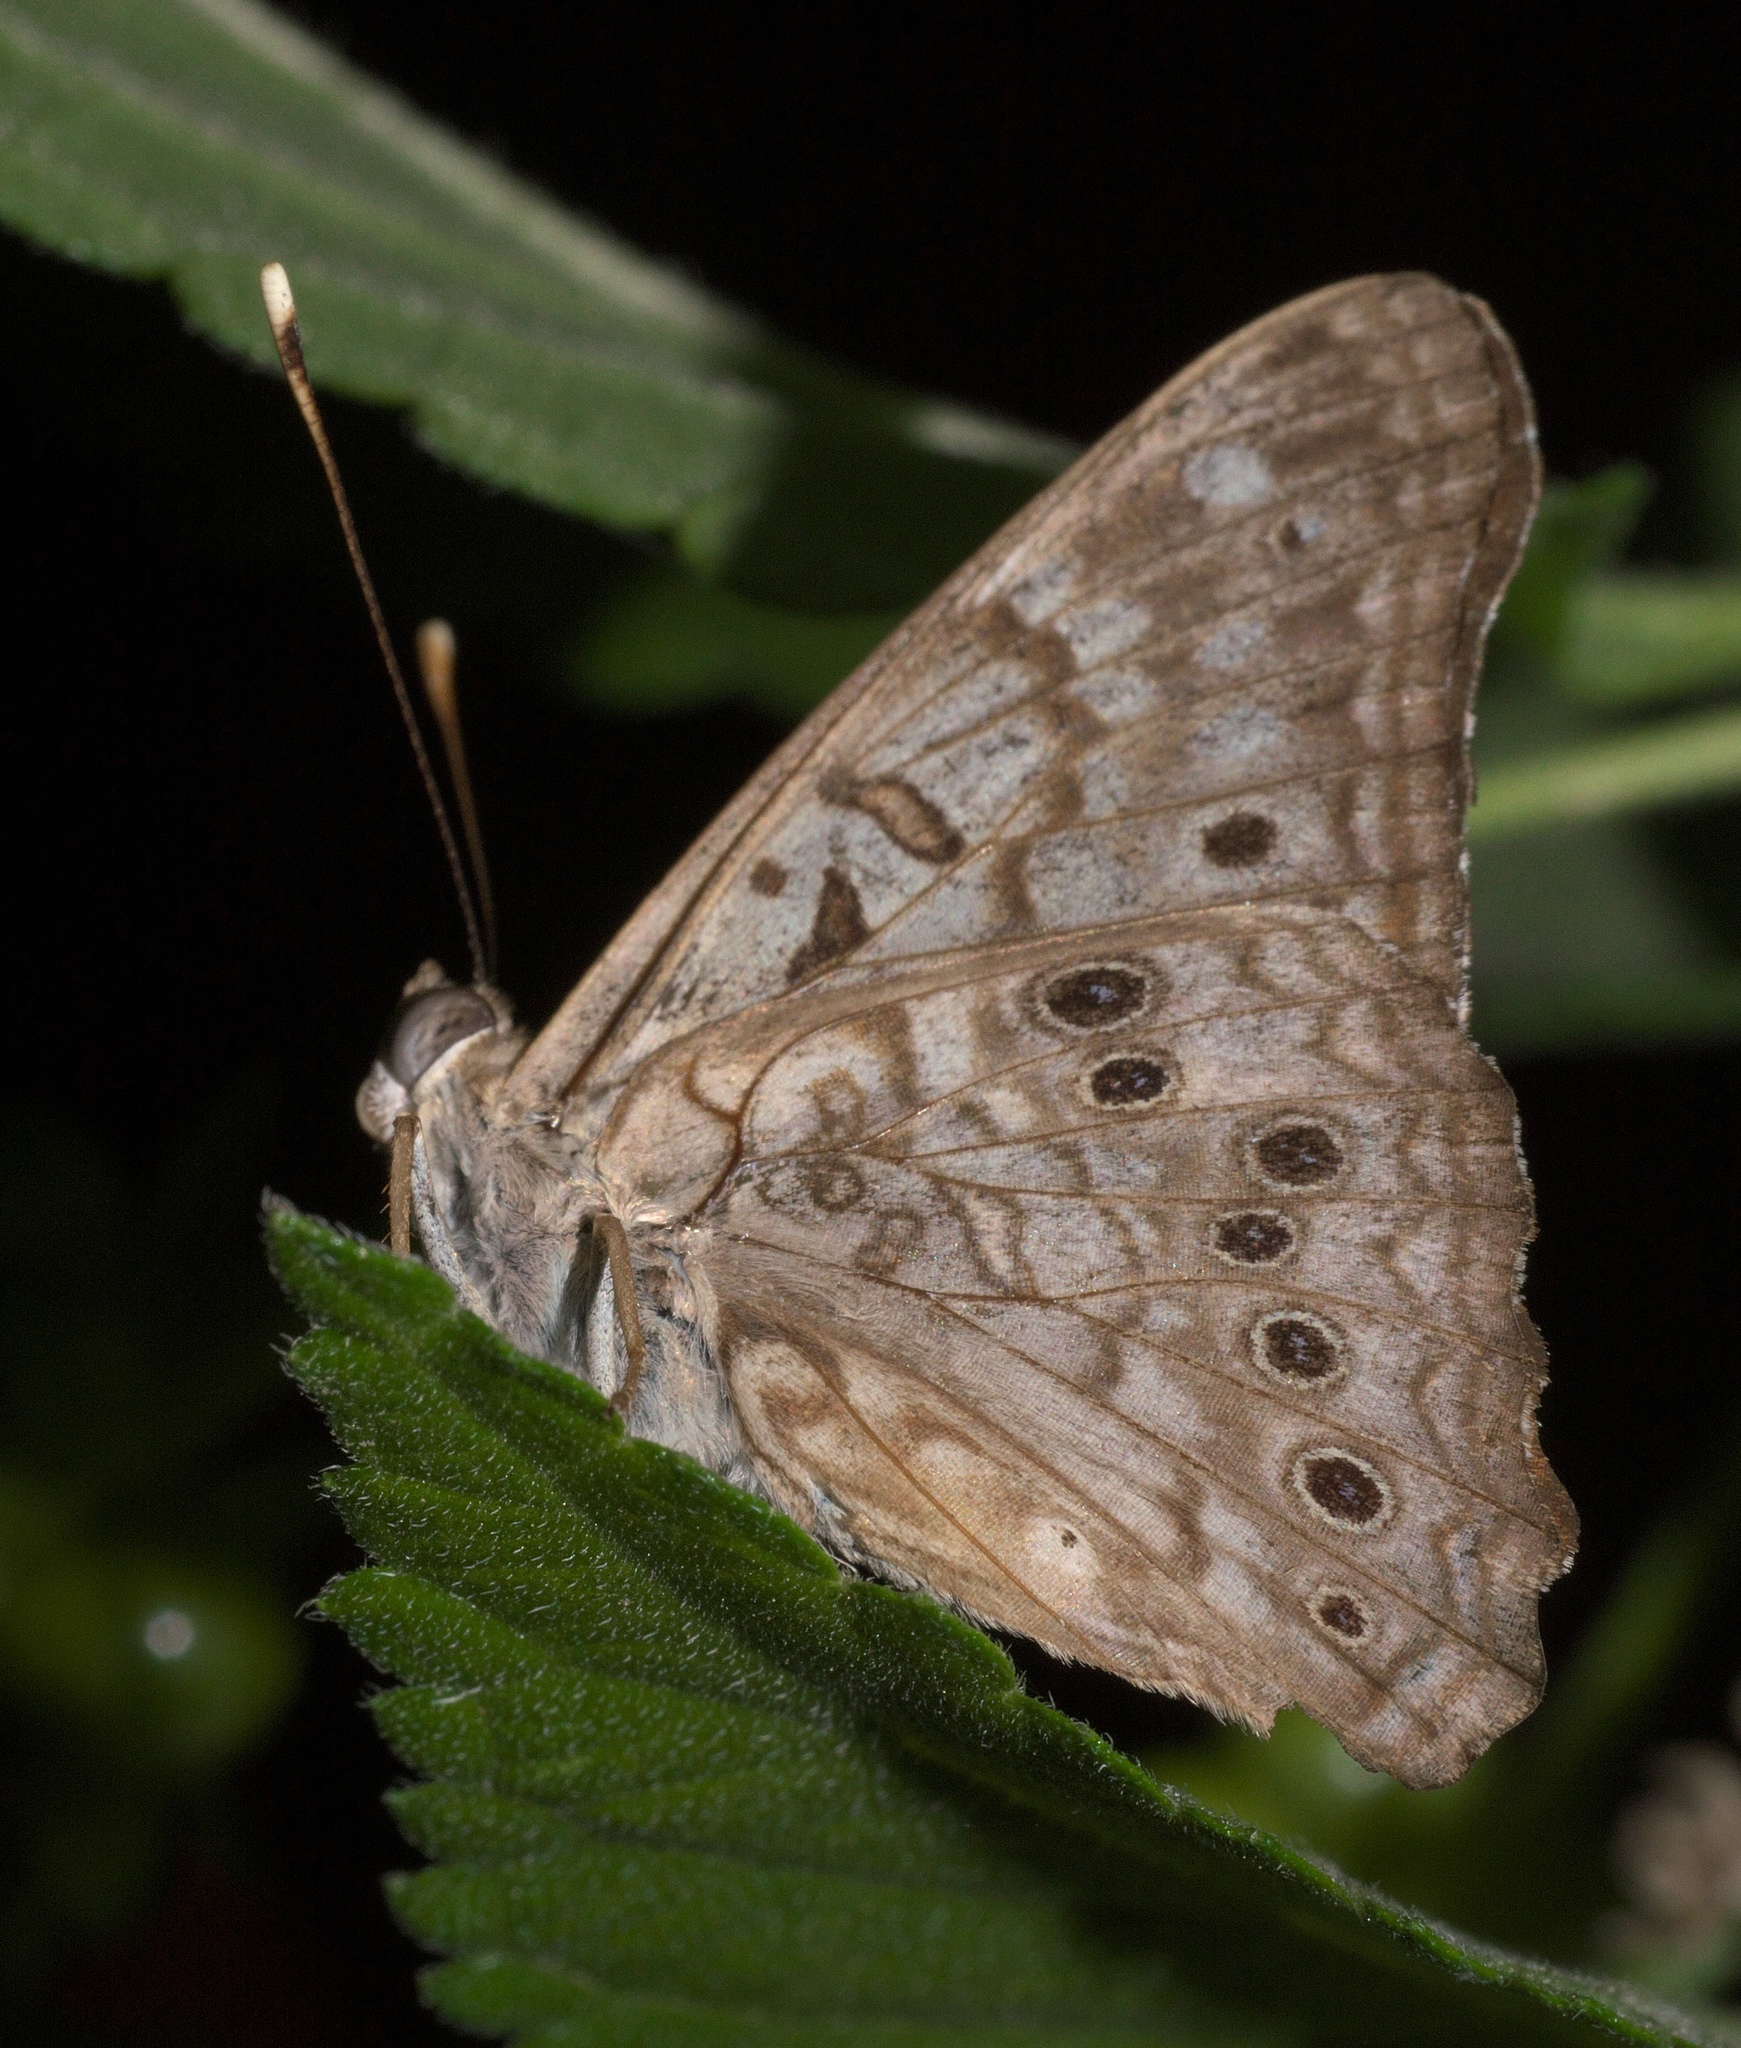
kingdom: Animalia
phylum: Arthropoda
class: Insecta
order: Lepidoptera
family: Nymphalidae
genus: Asterocampa
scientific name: Asterocampa celtis
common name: Hackberry emperor
